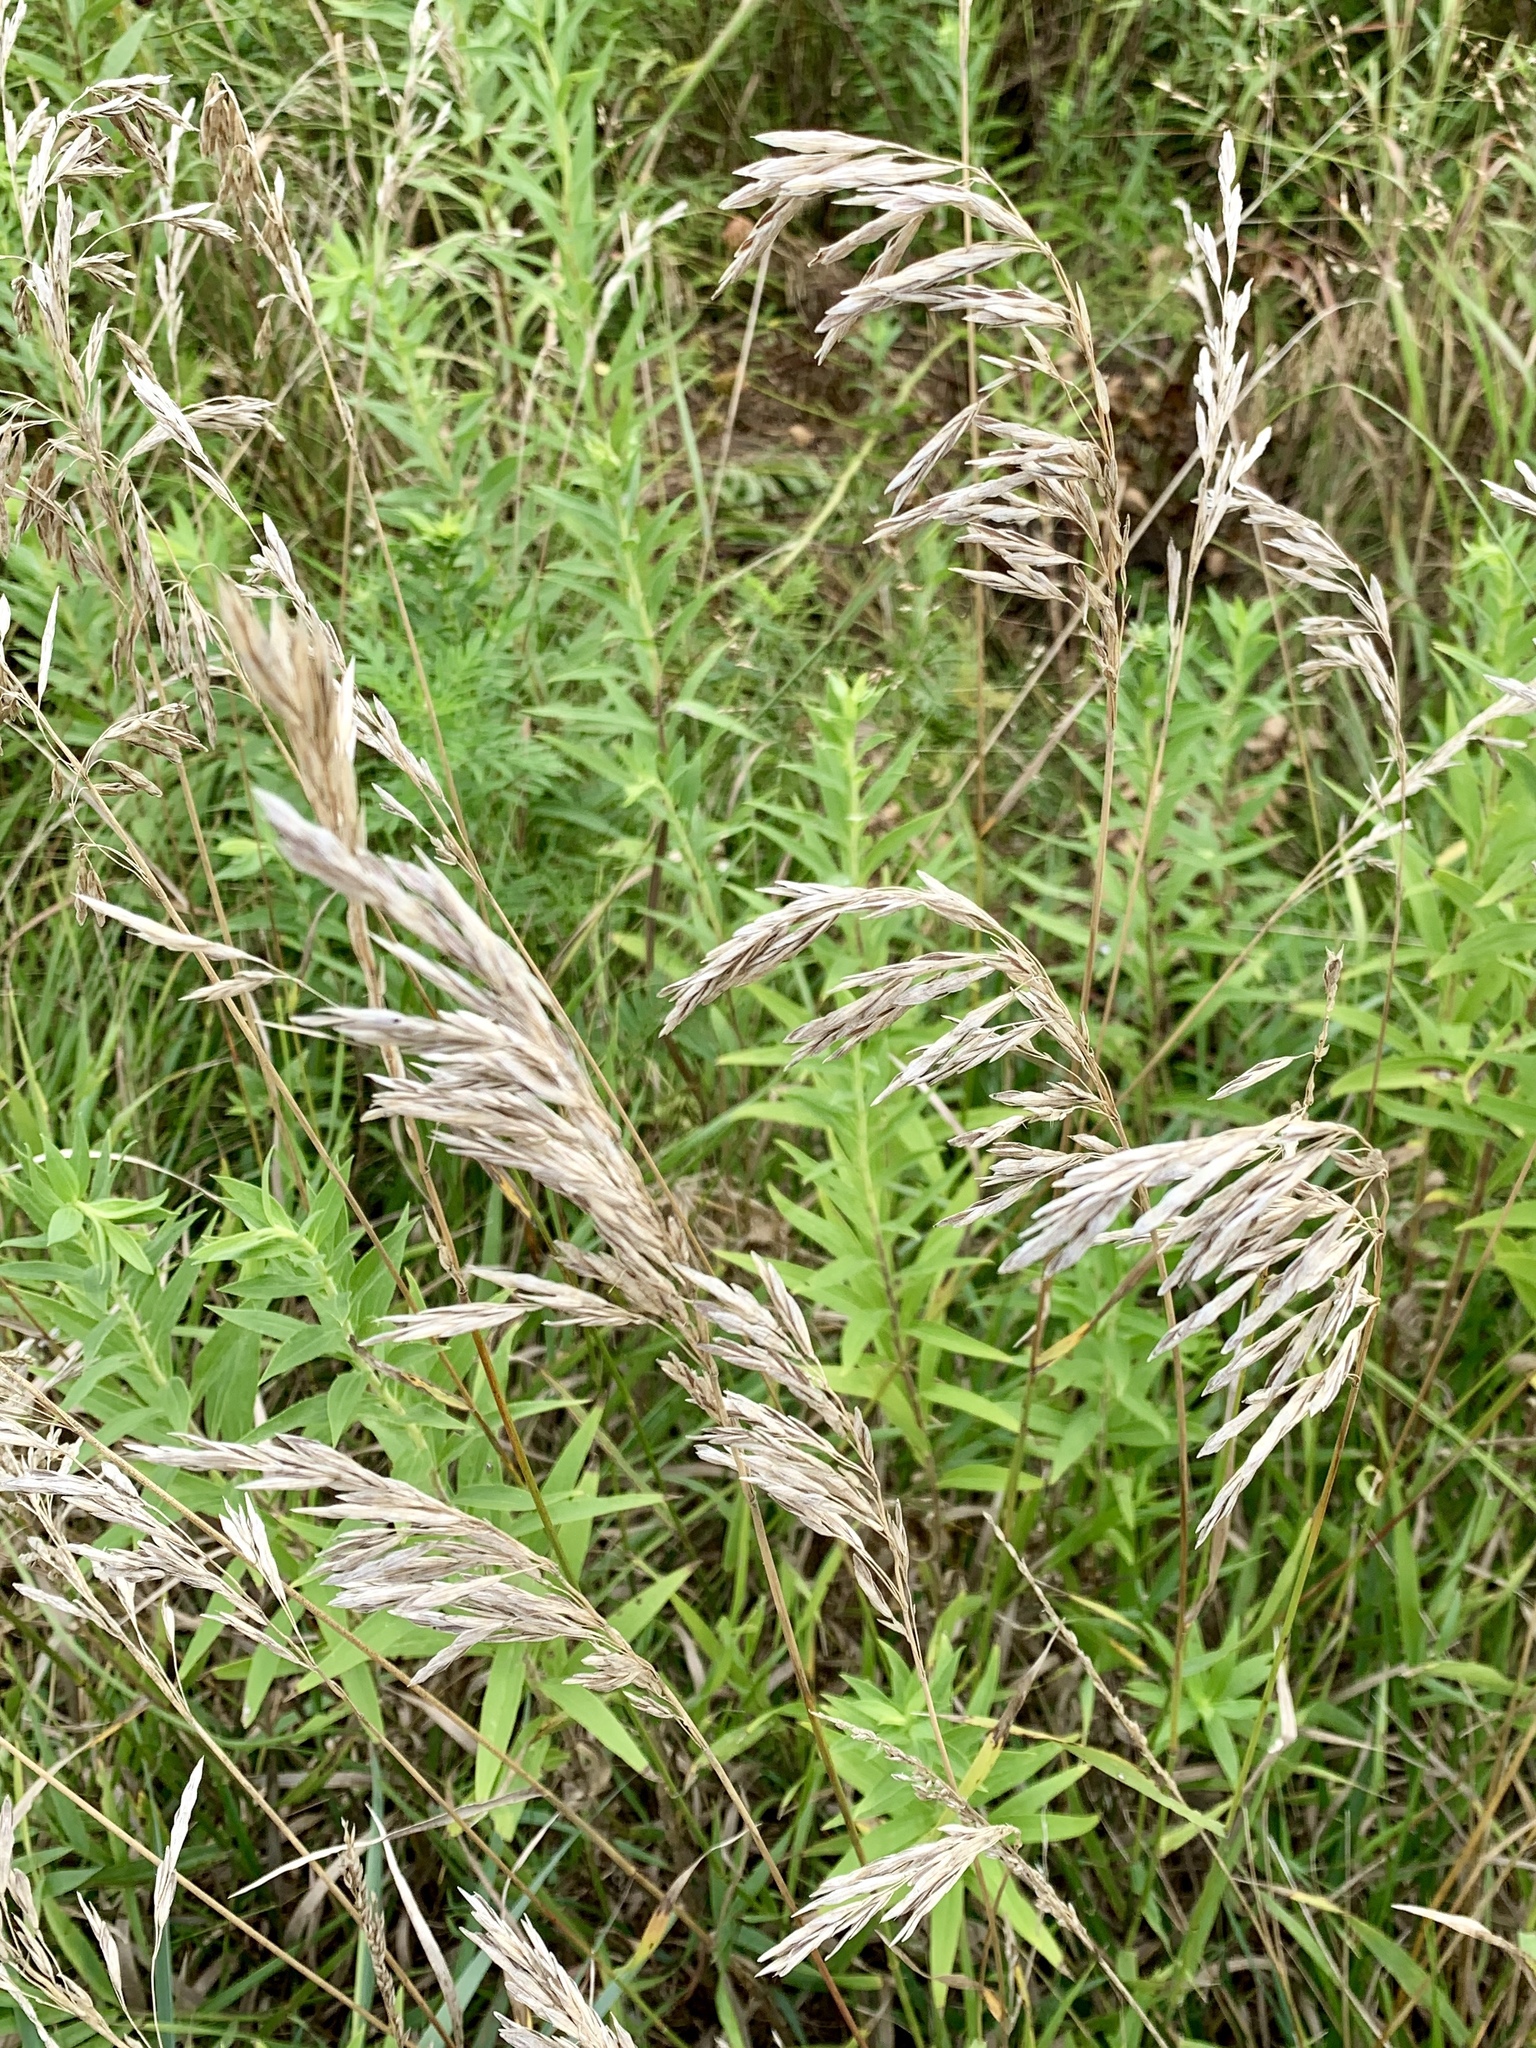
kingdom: Plantae
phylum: Tracheophyta
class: Liliopsida
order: Poales
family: Poaceae
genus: Bromus
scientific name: Bromus inermis
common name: Smooth brome
